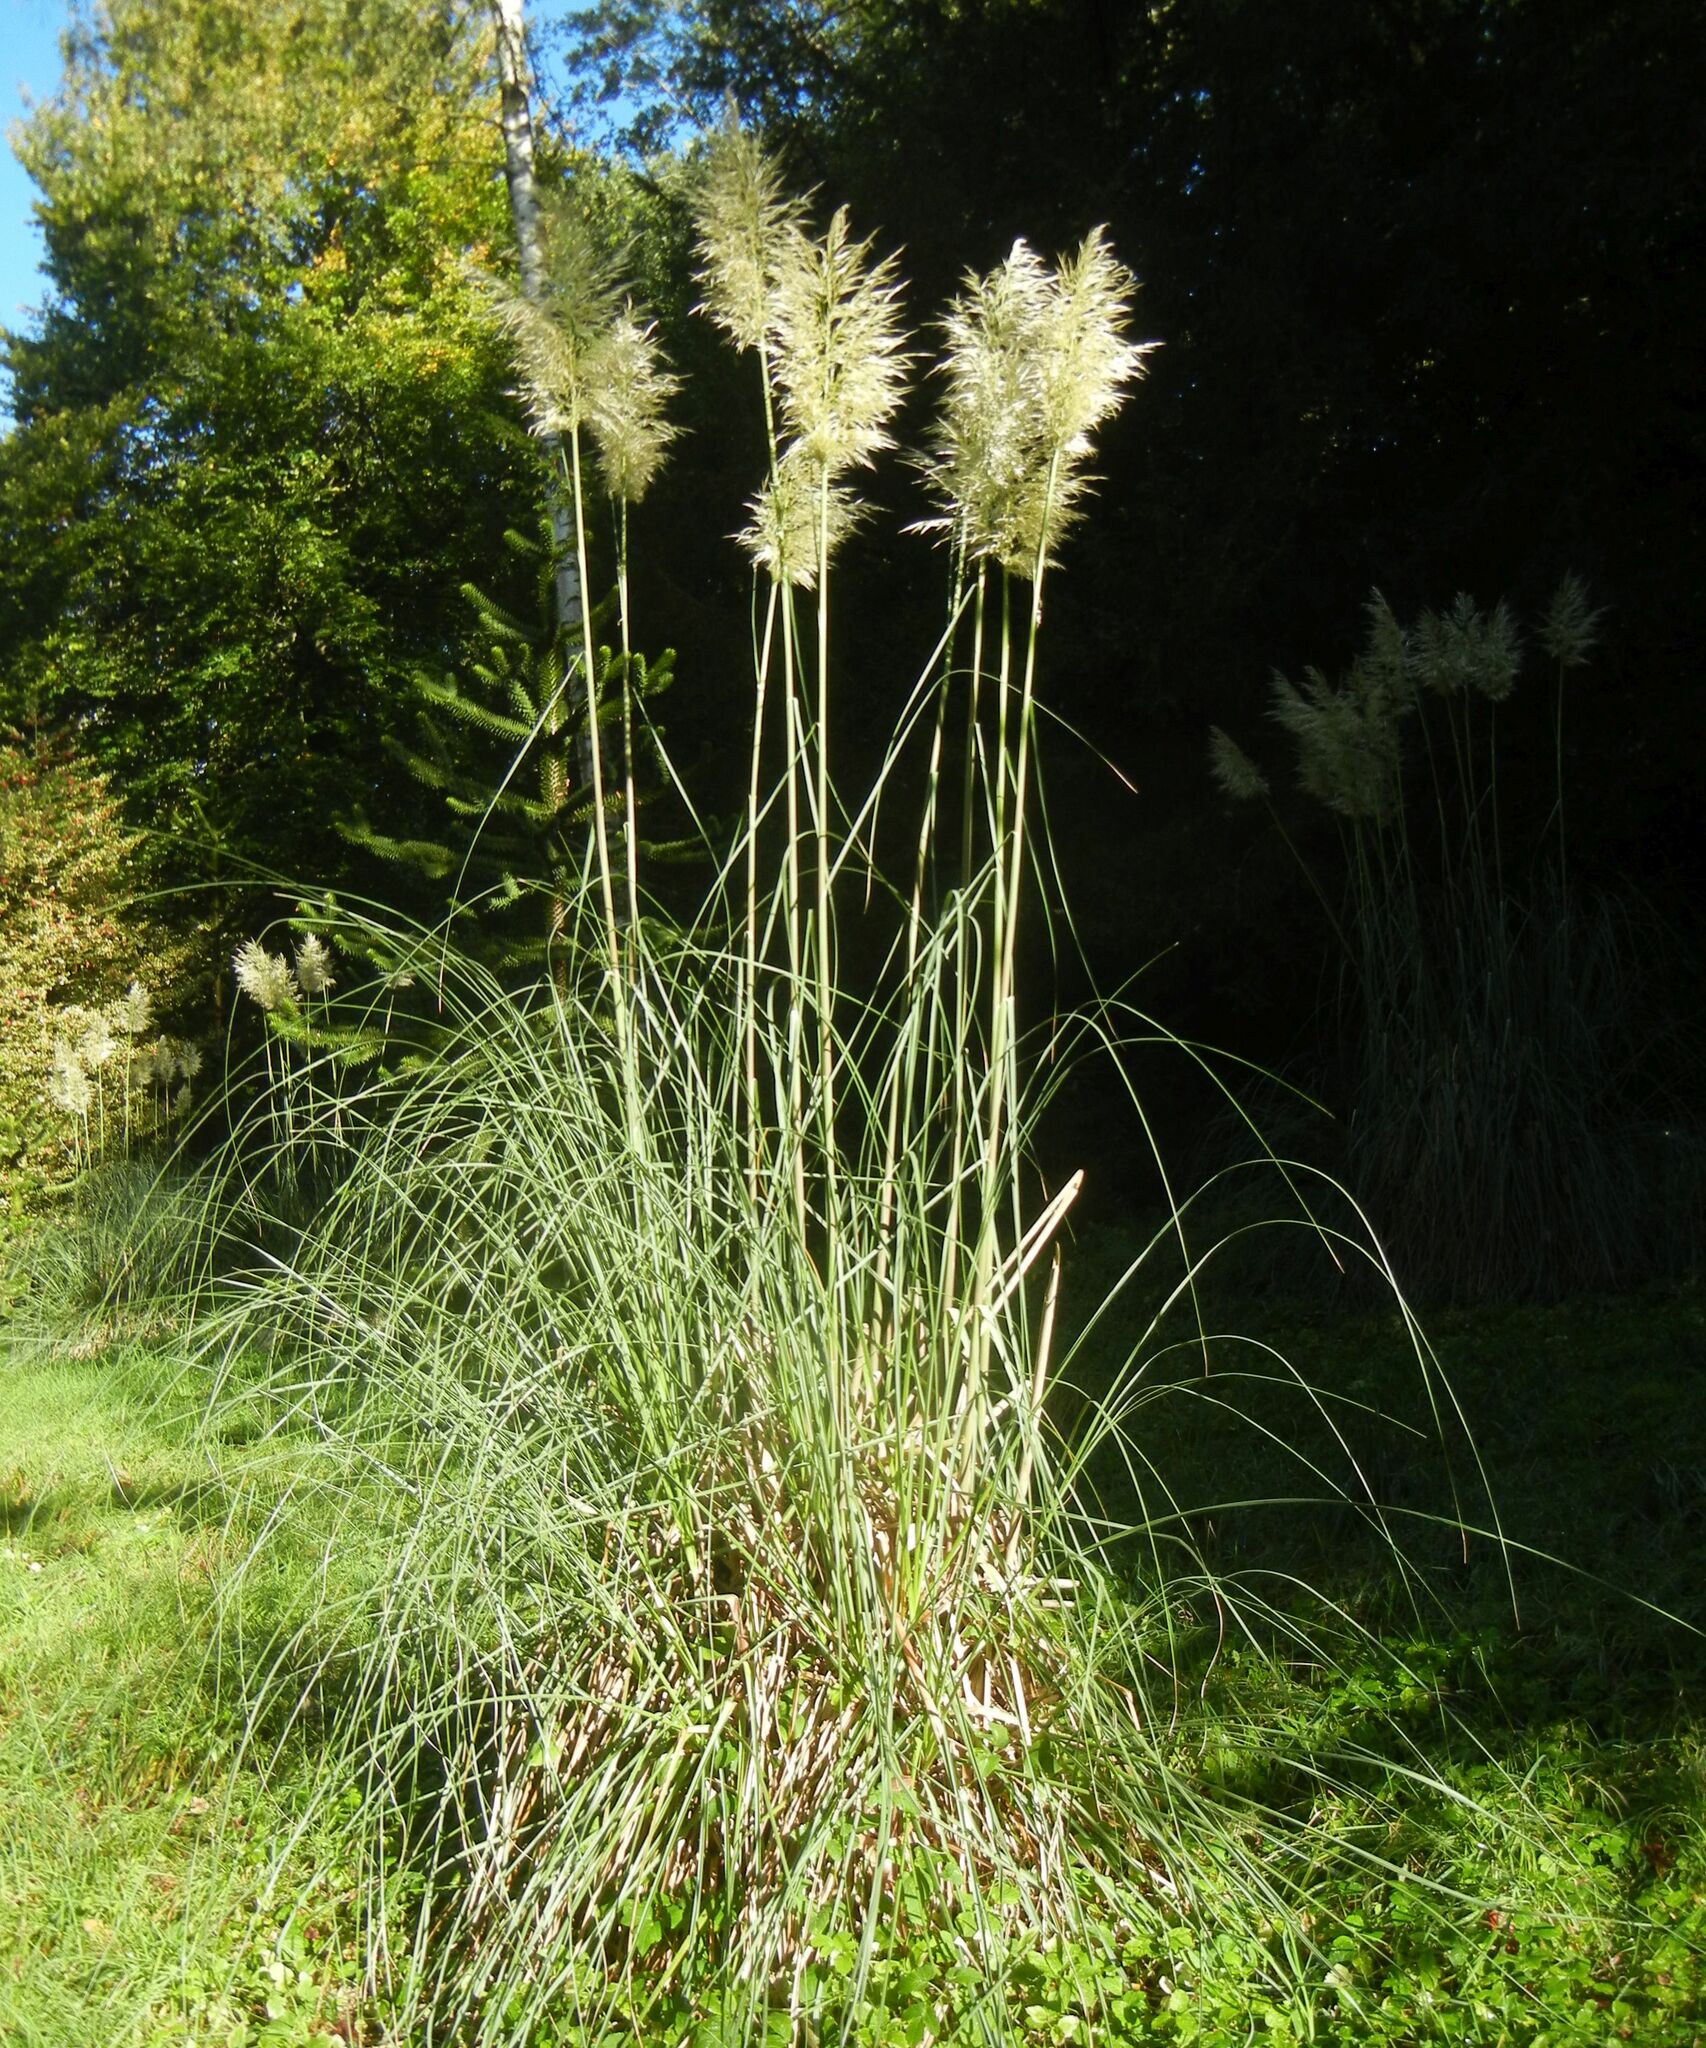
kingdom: Plantae
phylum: Tracheophyta
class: Liliopsida
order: Poales
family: Poaceae
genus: Cortaderia
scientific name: Cortaderia selloana
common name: Uruguayan pampas grass
